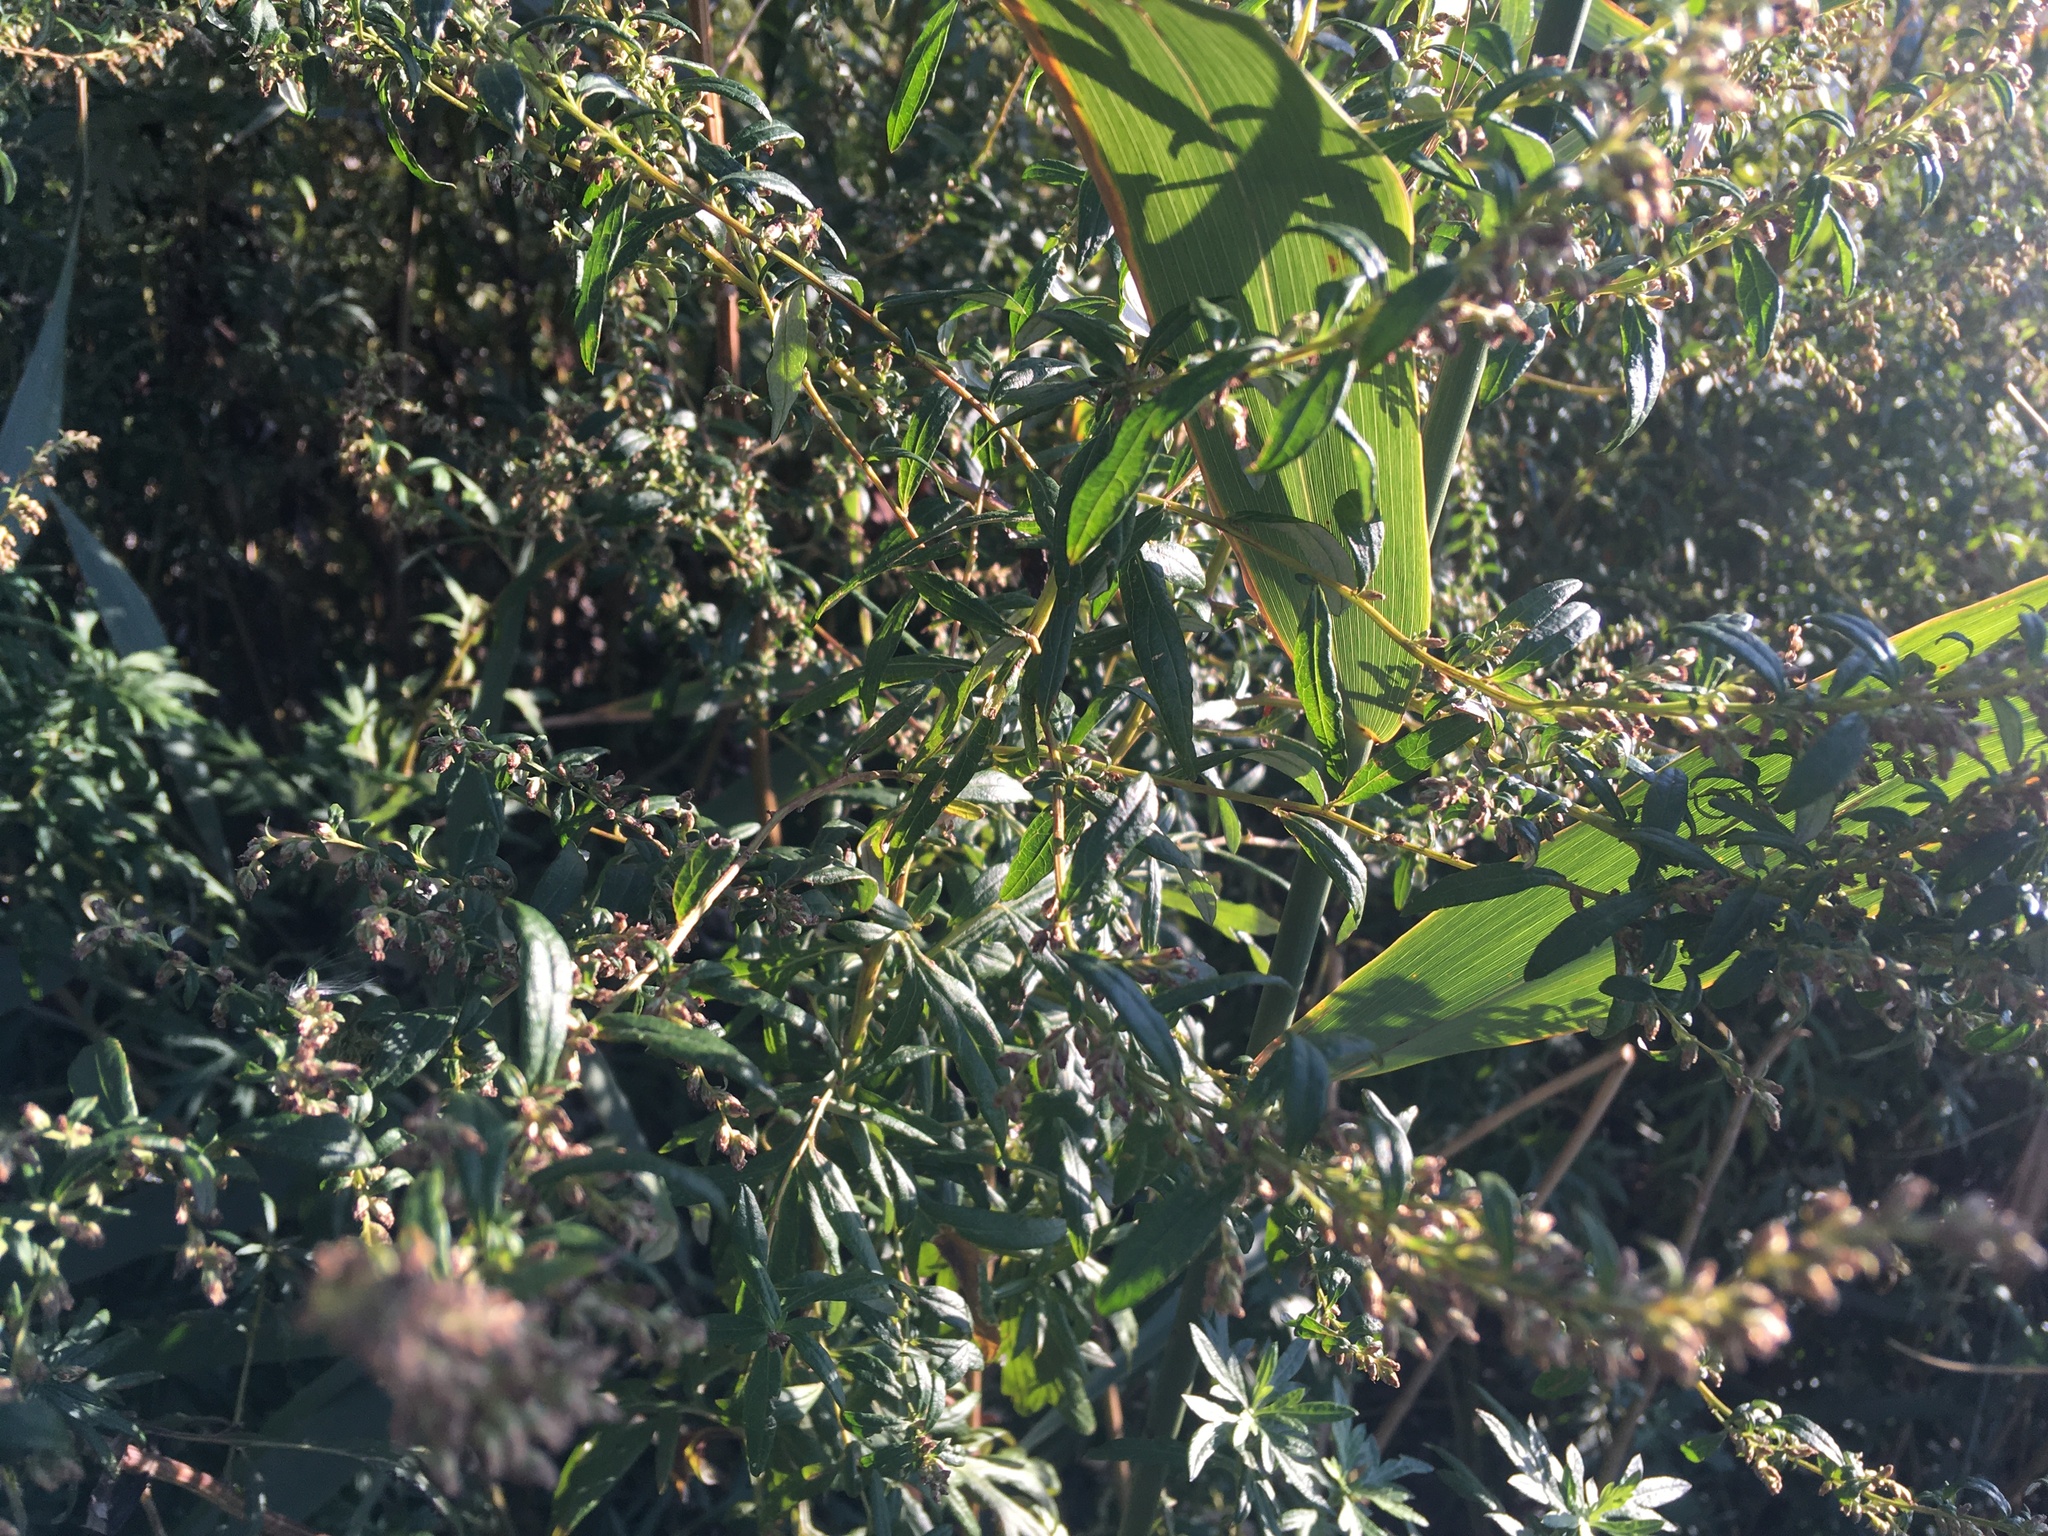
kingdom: Plantae
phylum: Tracheophyta
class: Magnoliopsida
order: Asterales
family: Asteraceae
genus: Artemisia
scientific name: Artemisia vulgaris
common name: Mugwort
